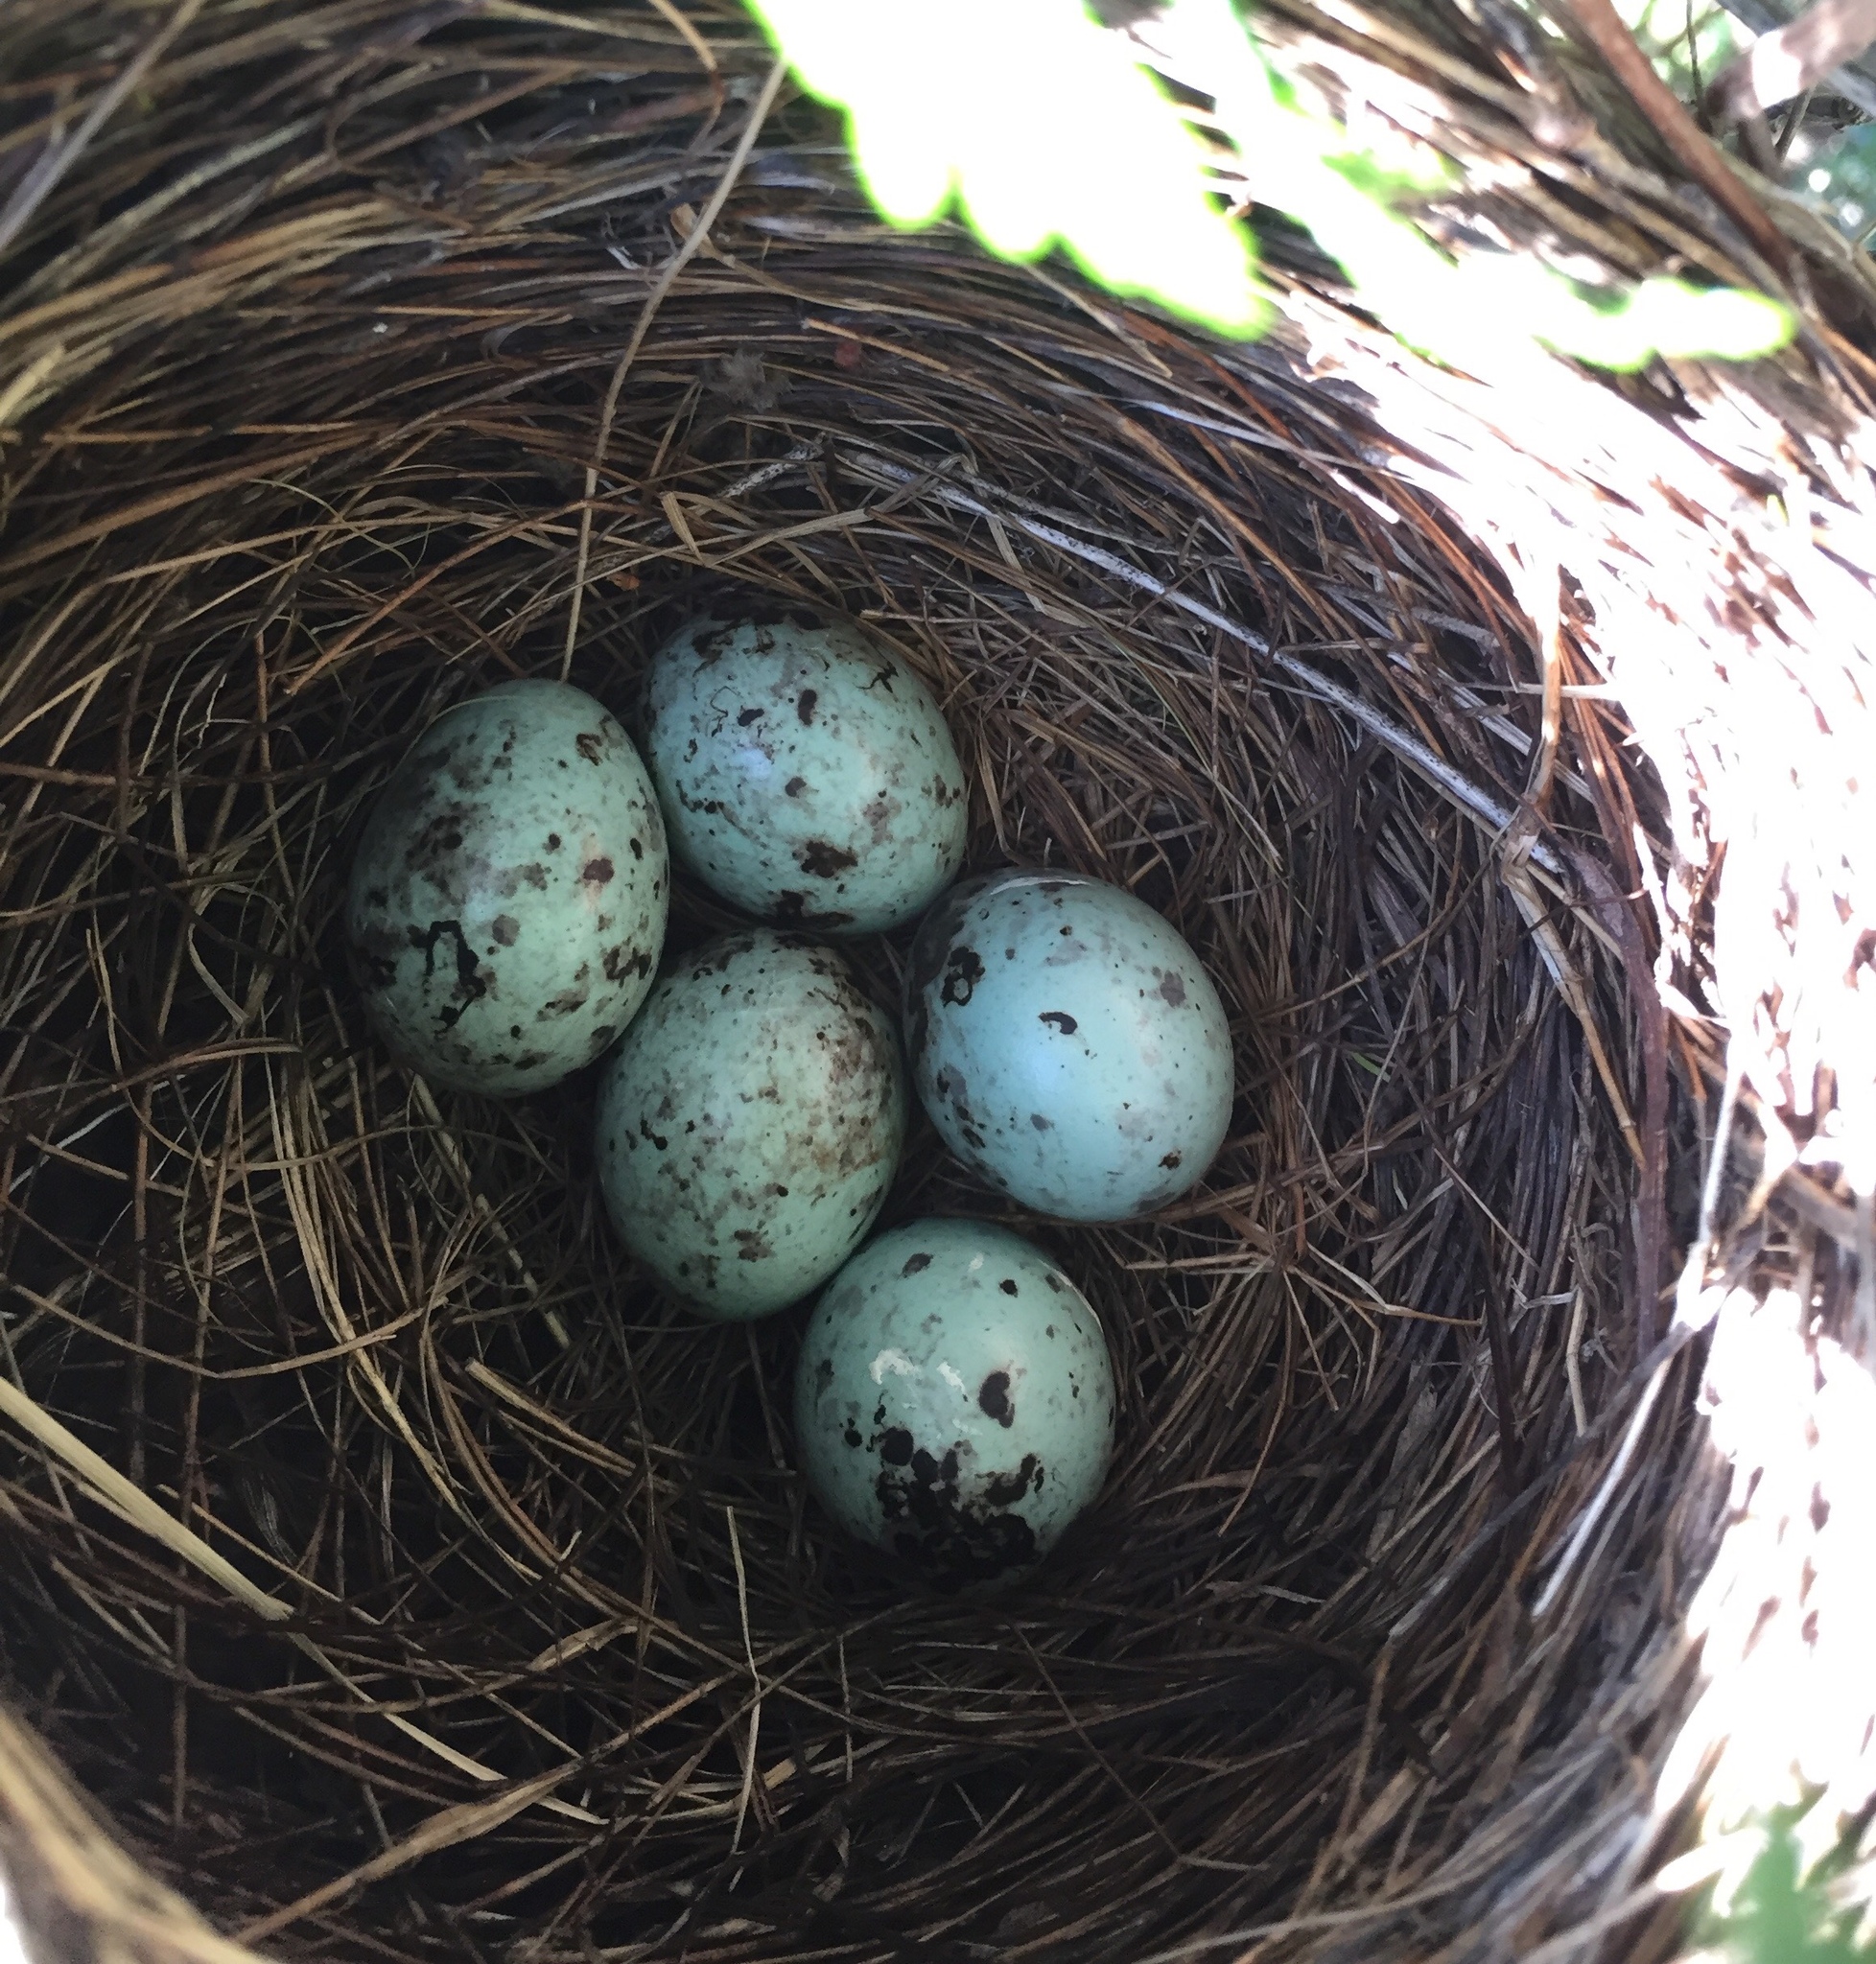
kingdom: Animalia
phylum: Chordata
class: Aves
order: Passeriformes
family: Icteridae
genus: Quiscalus
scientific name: Quiscalus quiscula
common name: Common grackle
